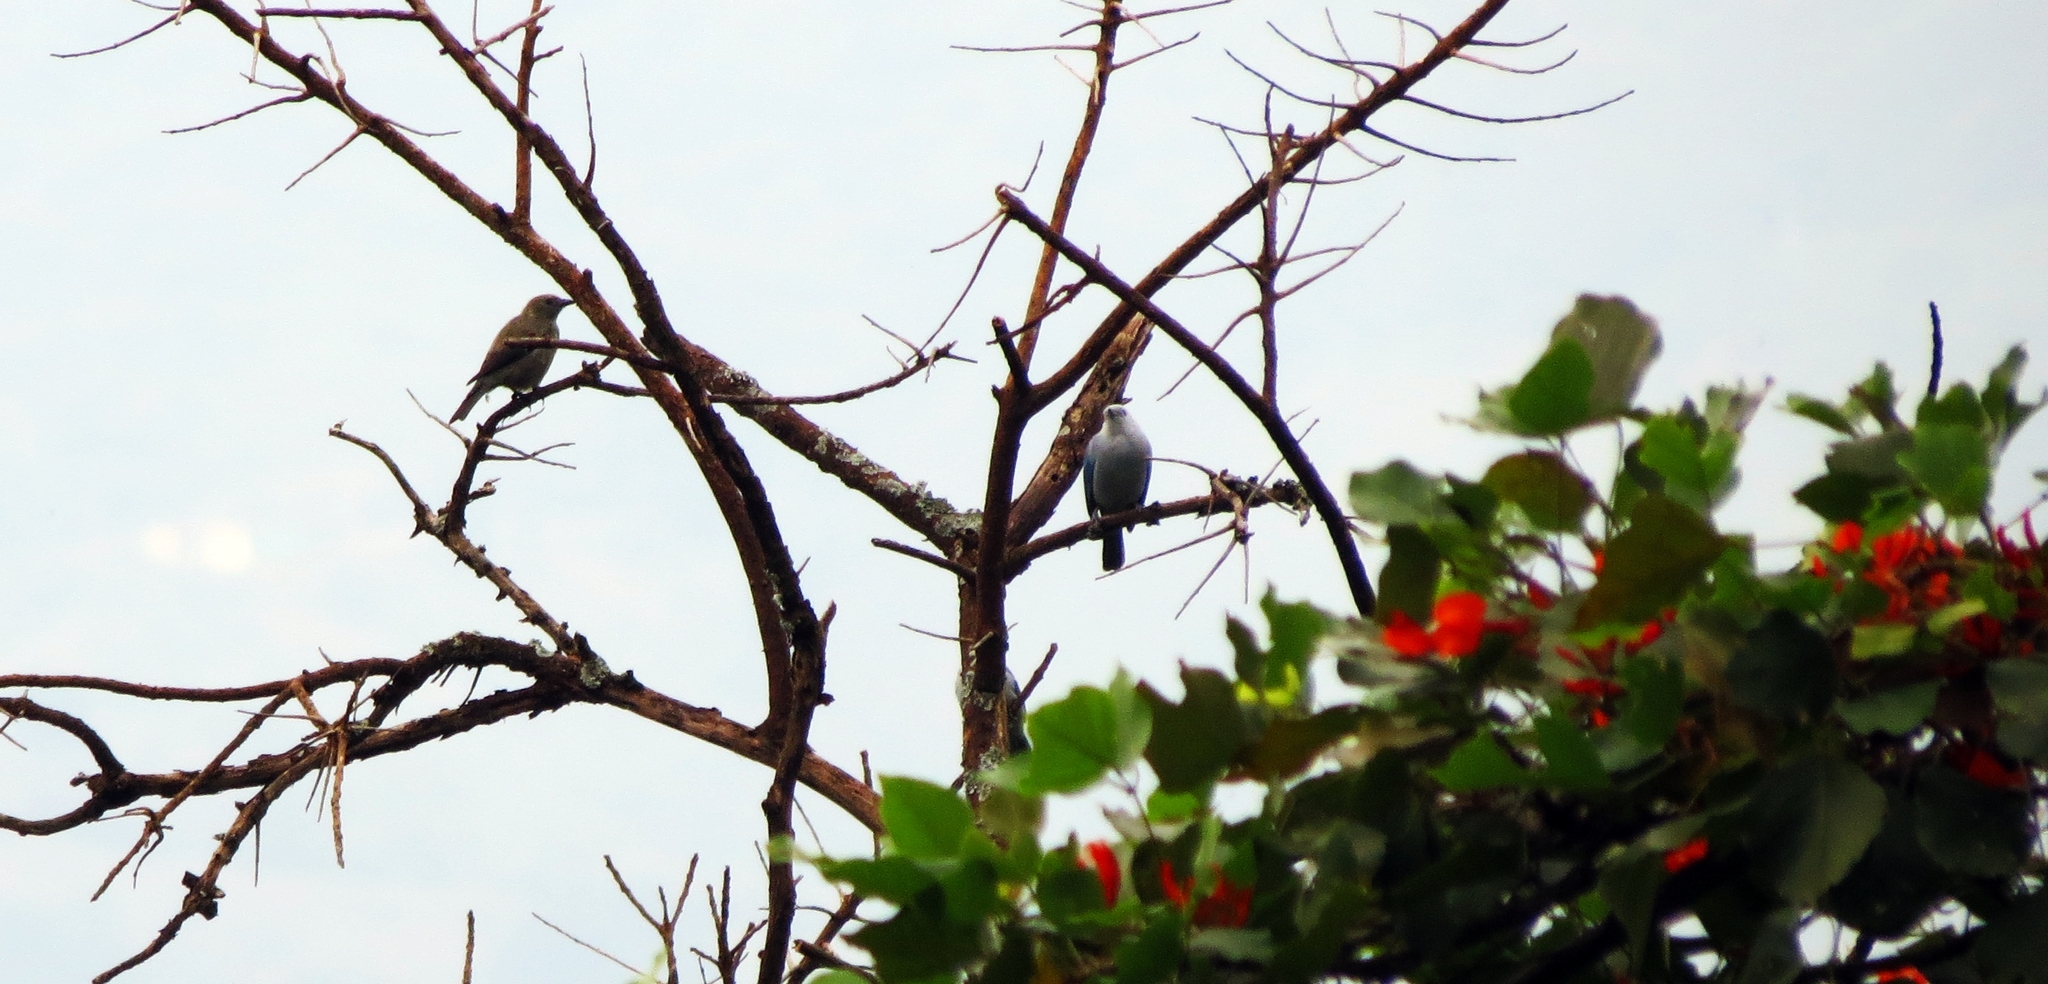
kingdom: Animalia
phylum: Chordata
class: Aves
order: Passeriformes
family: Thraupidae
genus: Thraupis
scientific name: Thraupis episcopus
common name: Blue-grey tanager
